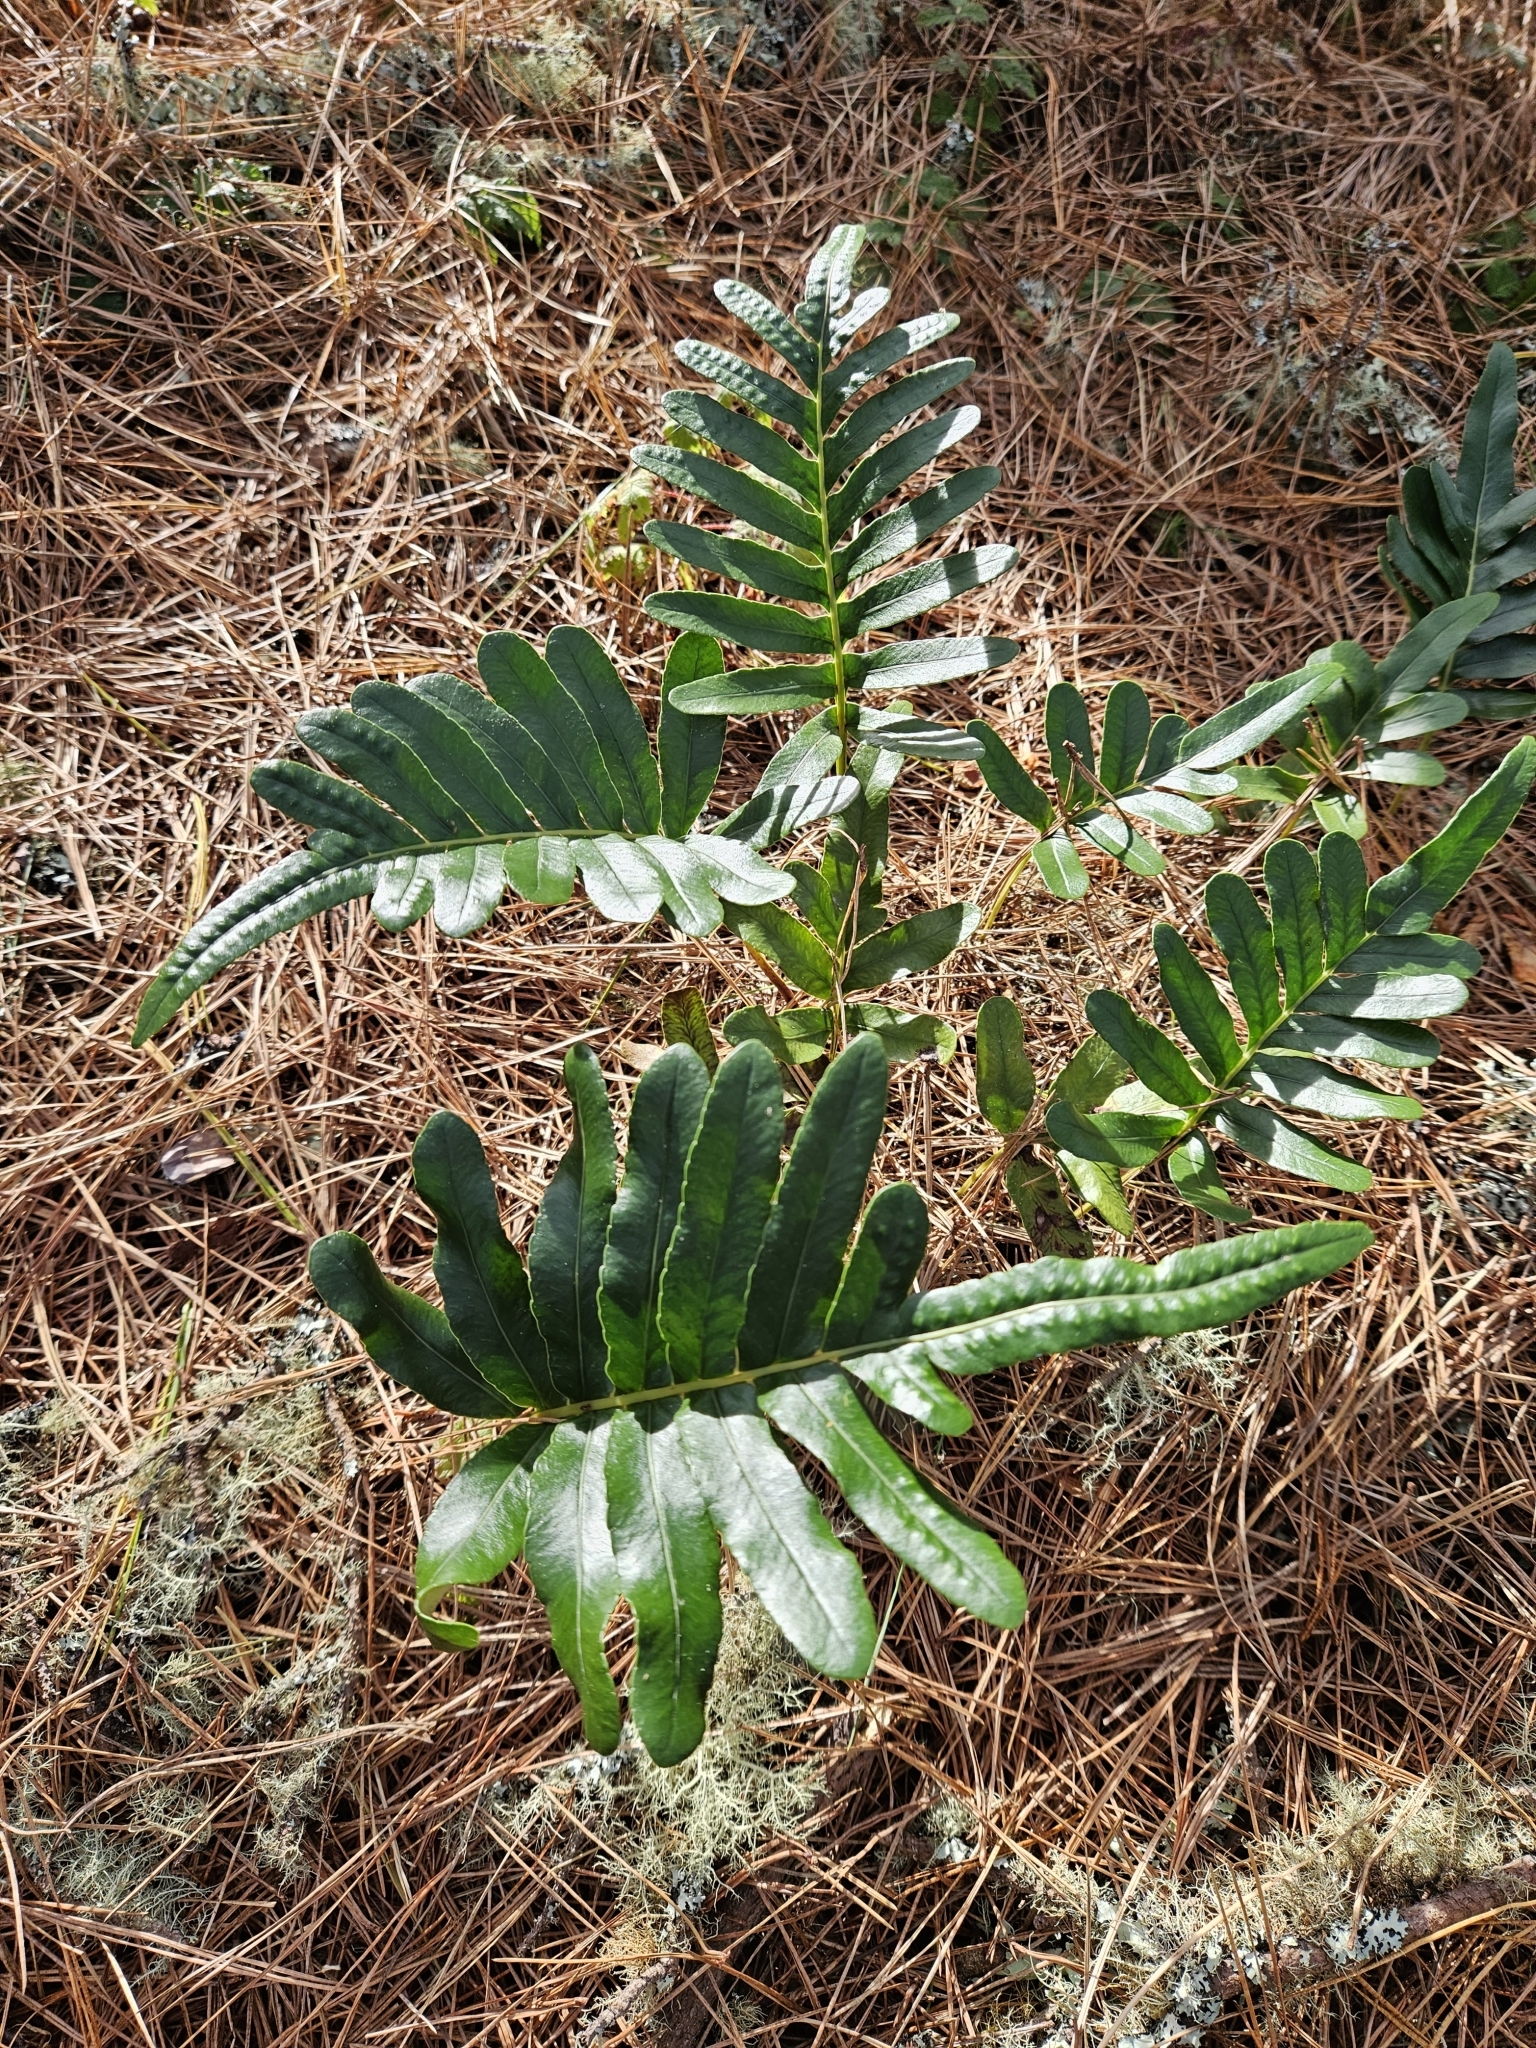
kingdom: Plantae
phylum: Tracheophyta
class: Polypodiopsida
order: Polypodiales
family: Polypodiaceae
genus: Polypodium
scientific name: Polypodium scouleri
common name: Scouler's polypody
